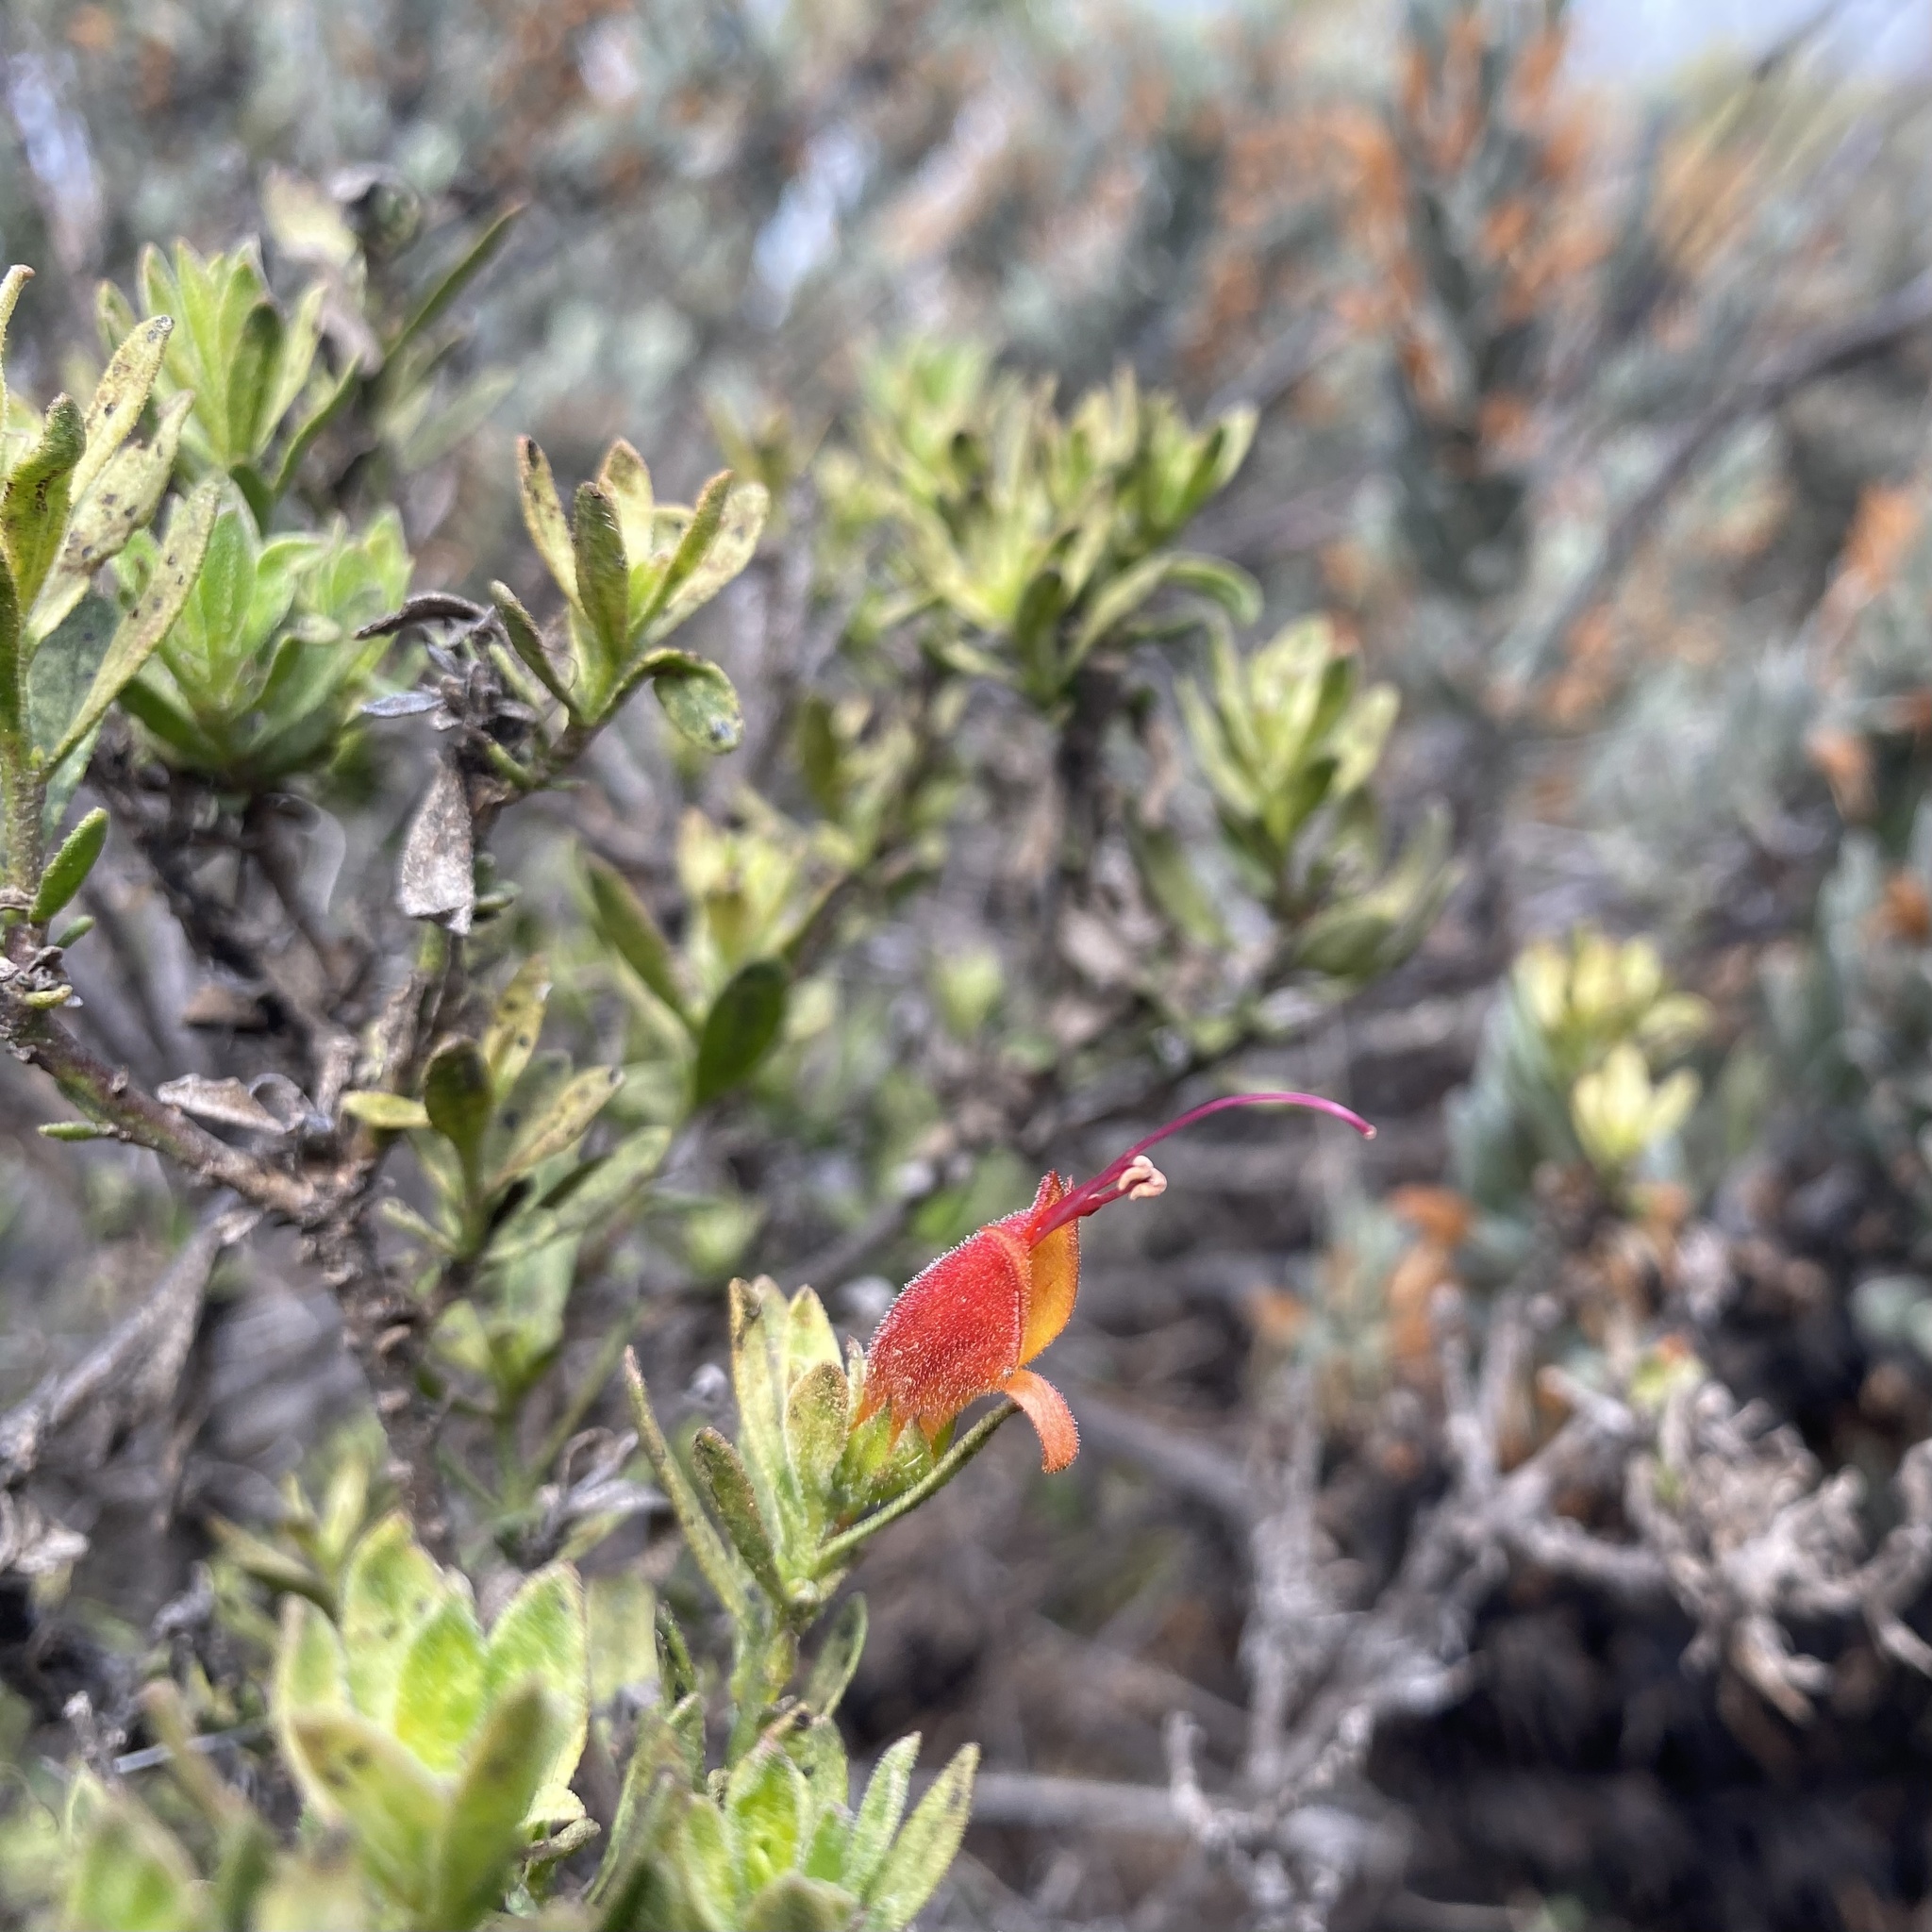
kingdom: Plantae
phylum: Tracheophyta
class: Magnoliopsida
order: Lamiales
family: Scrophulariaceae
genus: Eremophila
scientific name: Eremophila glabra
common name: Black-fuchsia
